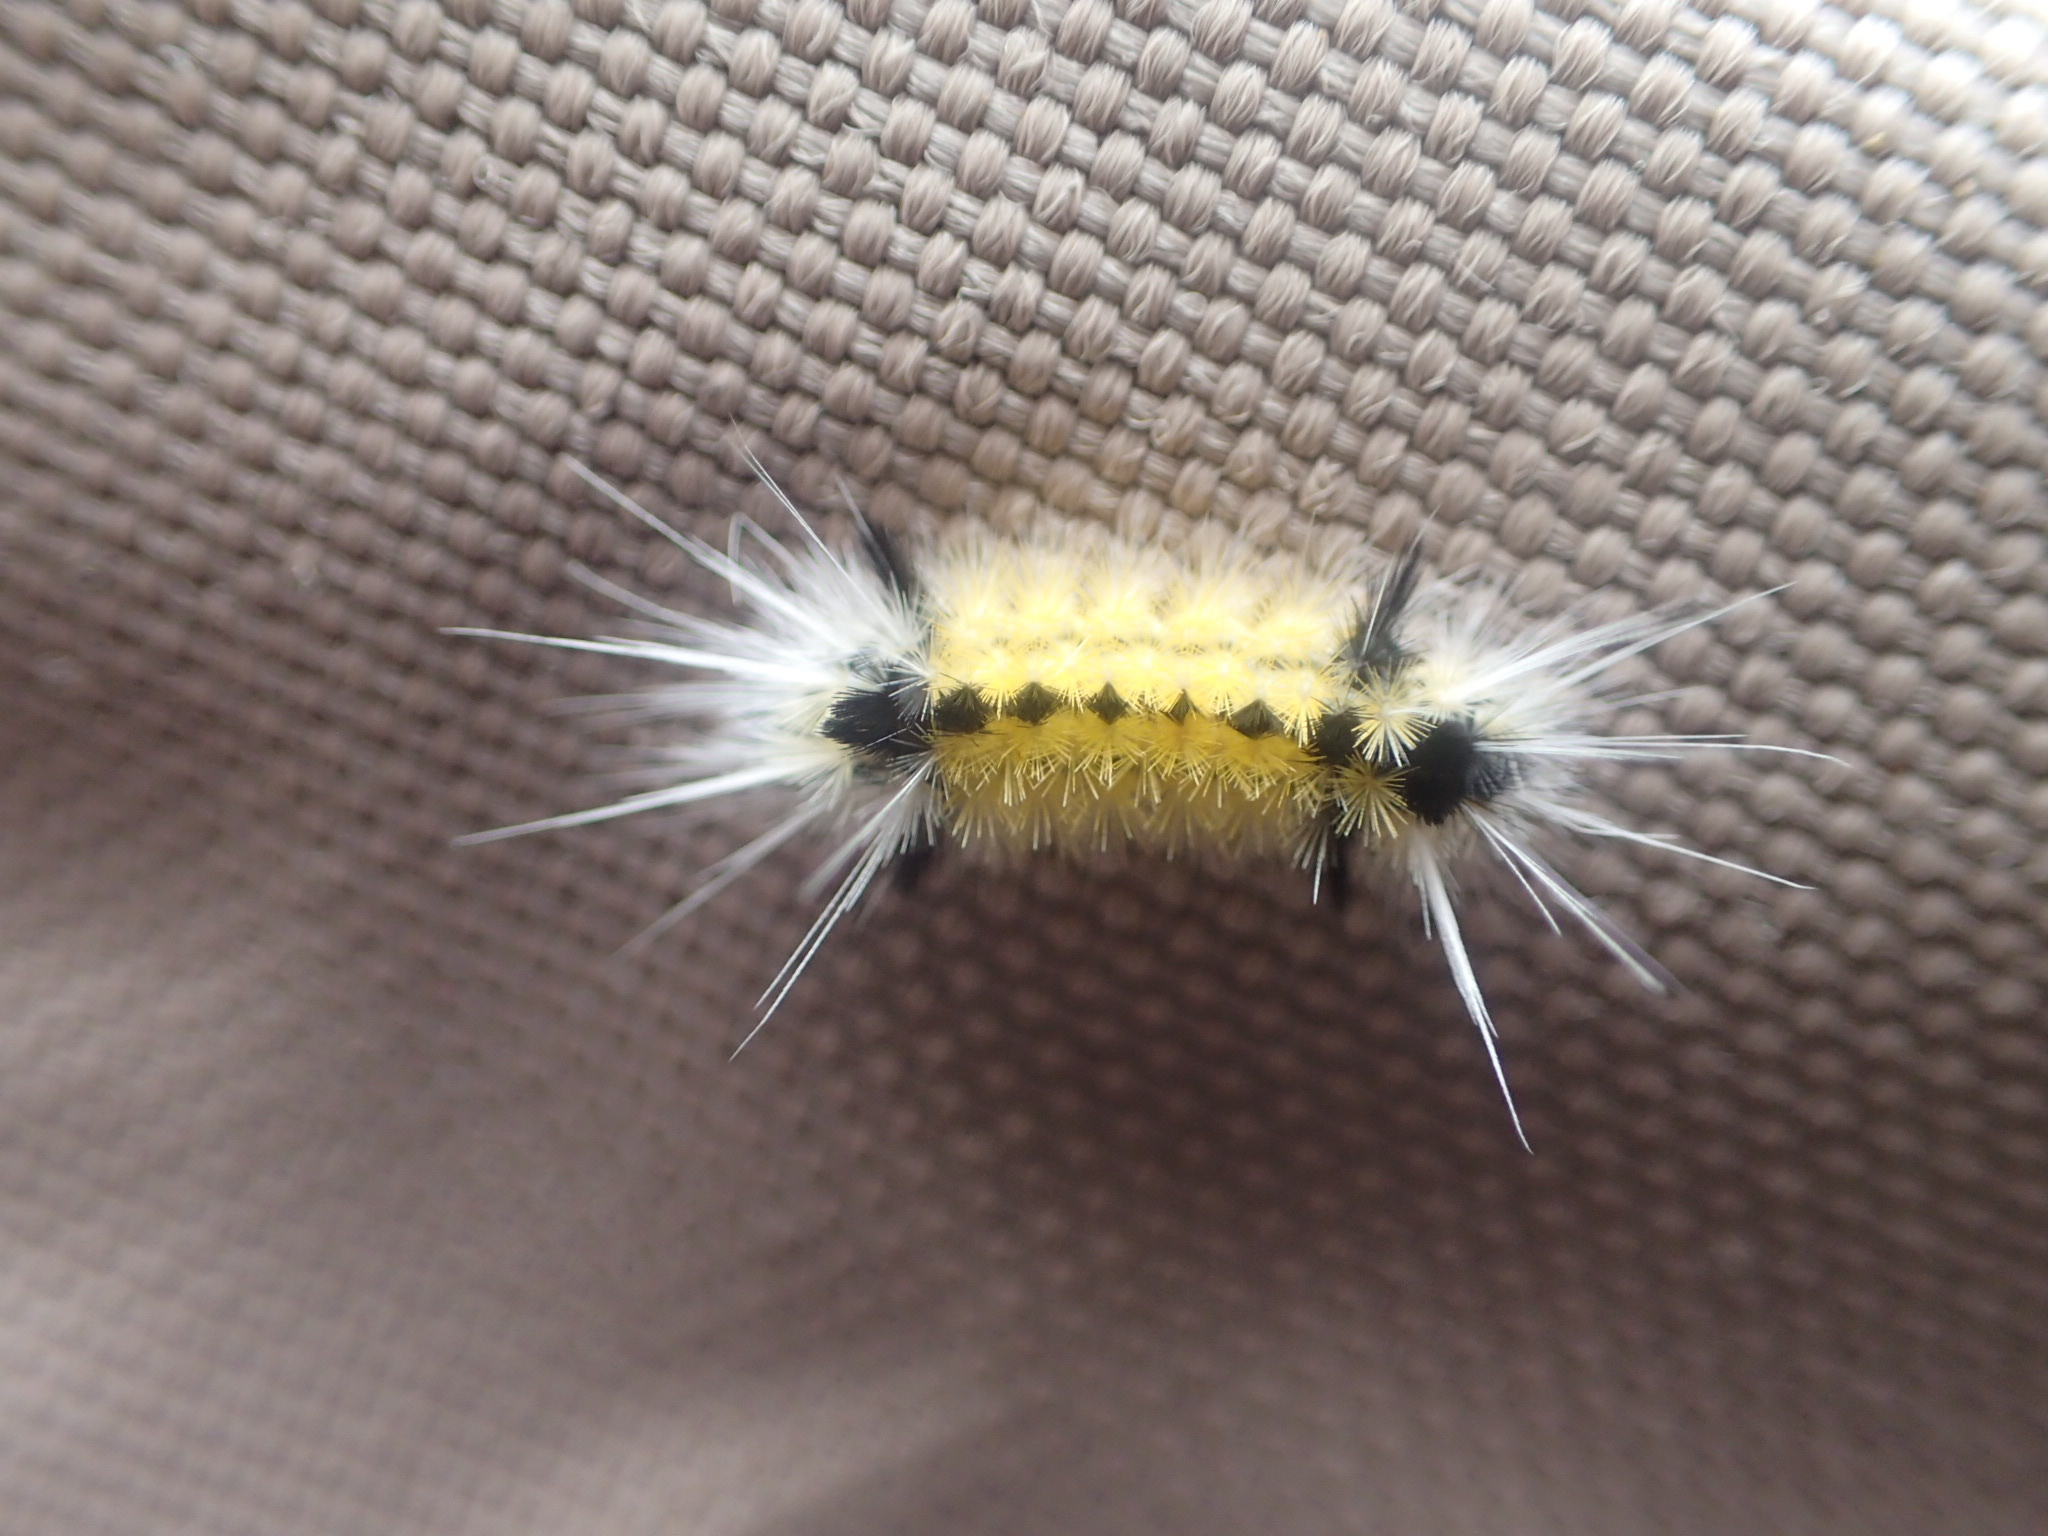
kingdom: Animalia
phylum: Arthropoda
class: Insecta
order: Lepidoptera
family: Erebidae
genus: Lophocampa
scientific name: Lophocampa maculata
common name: Spotted tussock moth
